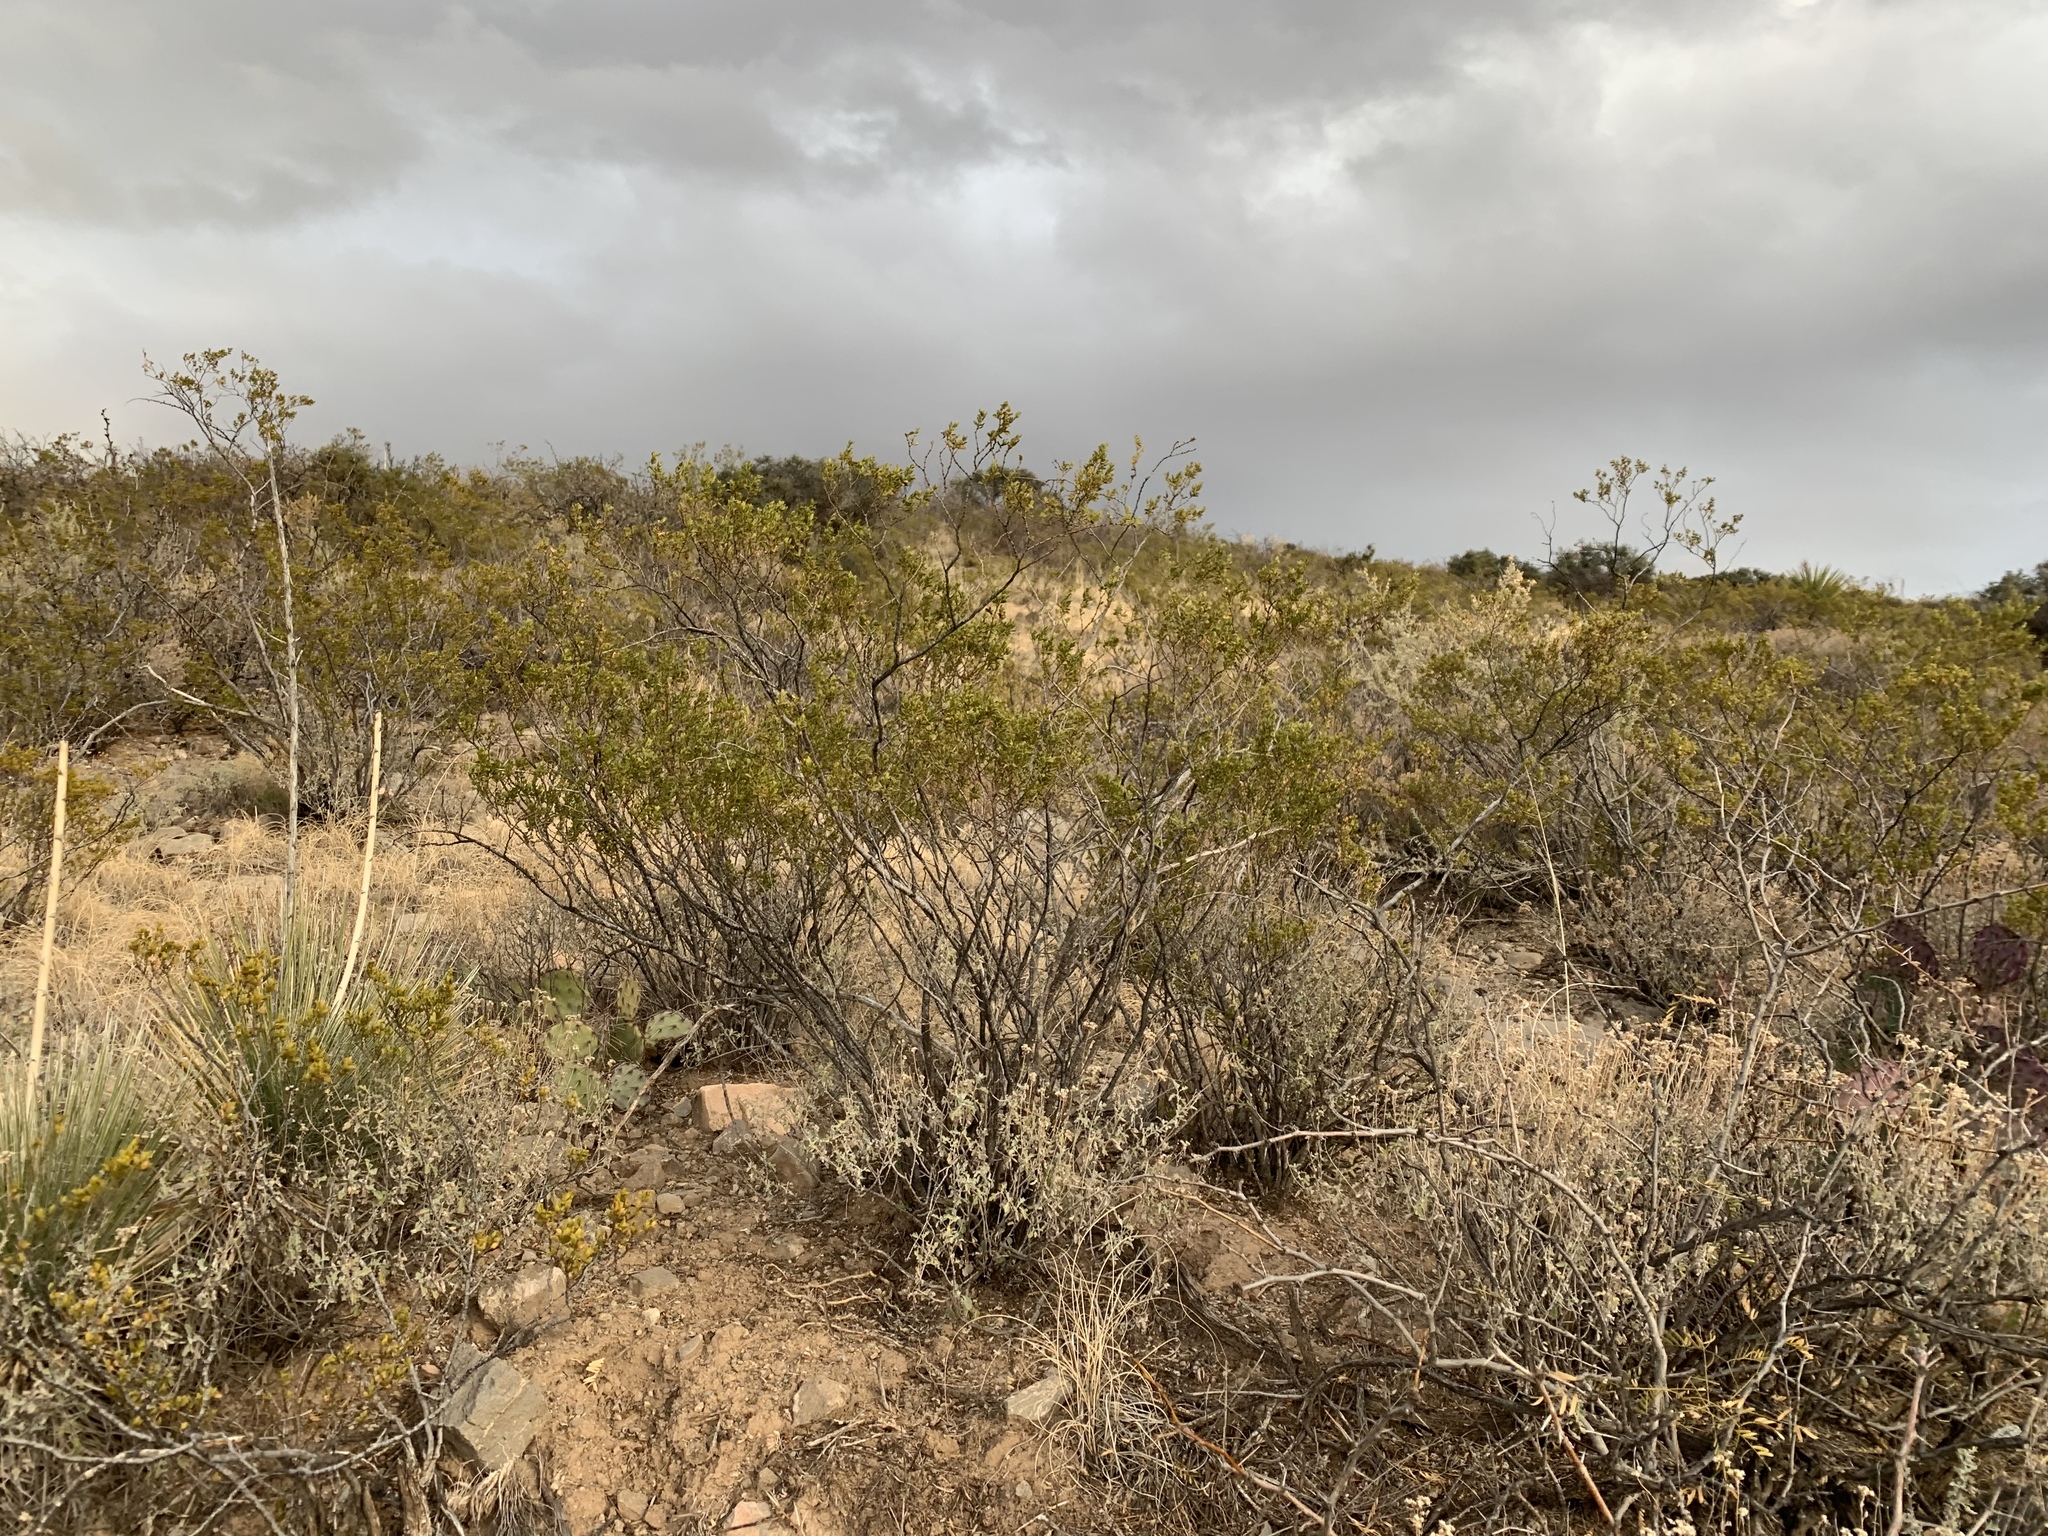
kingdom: Plantae
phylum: Tracheophyta
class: Magnoliopsida
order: Zygophyllales
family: Zygophyllaceae
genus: Larrea
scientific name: Larrea tridentata
